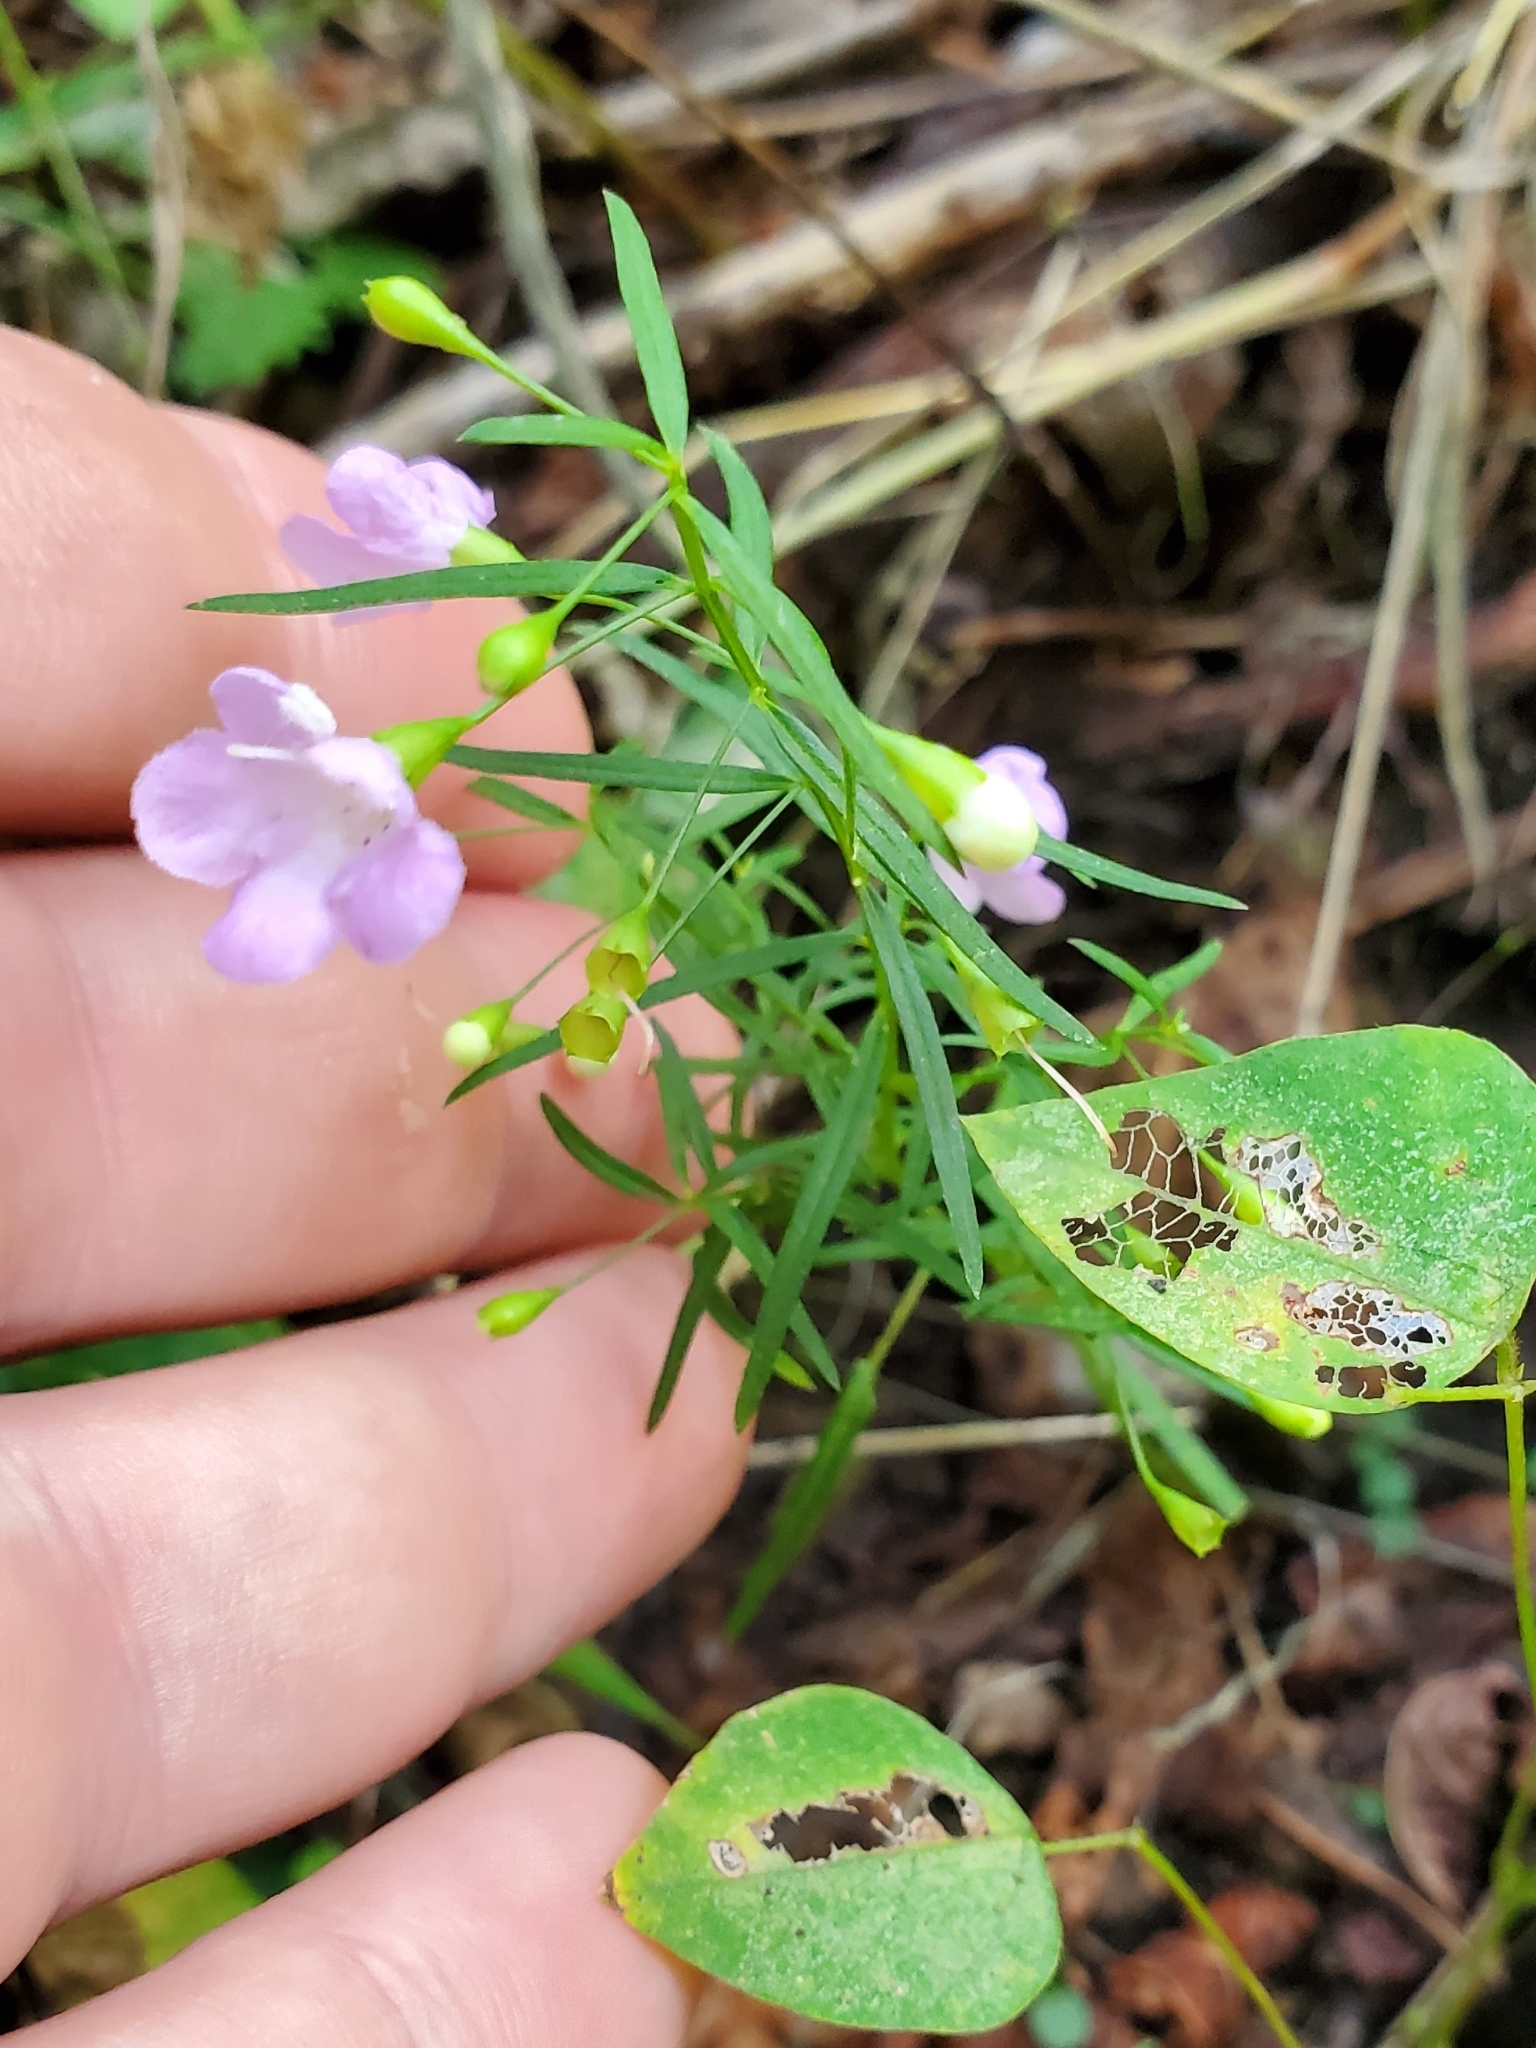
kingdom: Plantae
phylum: Tracheophyta
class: Magnoliopsida
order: Lamiales
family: Orobanchaceae
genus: Agalinis
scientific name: Agalinis tenuifolia
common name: Slender agalinis
